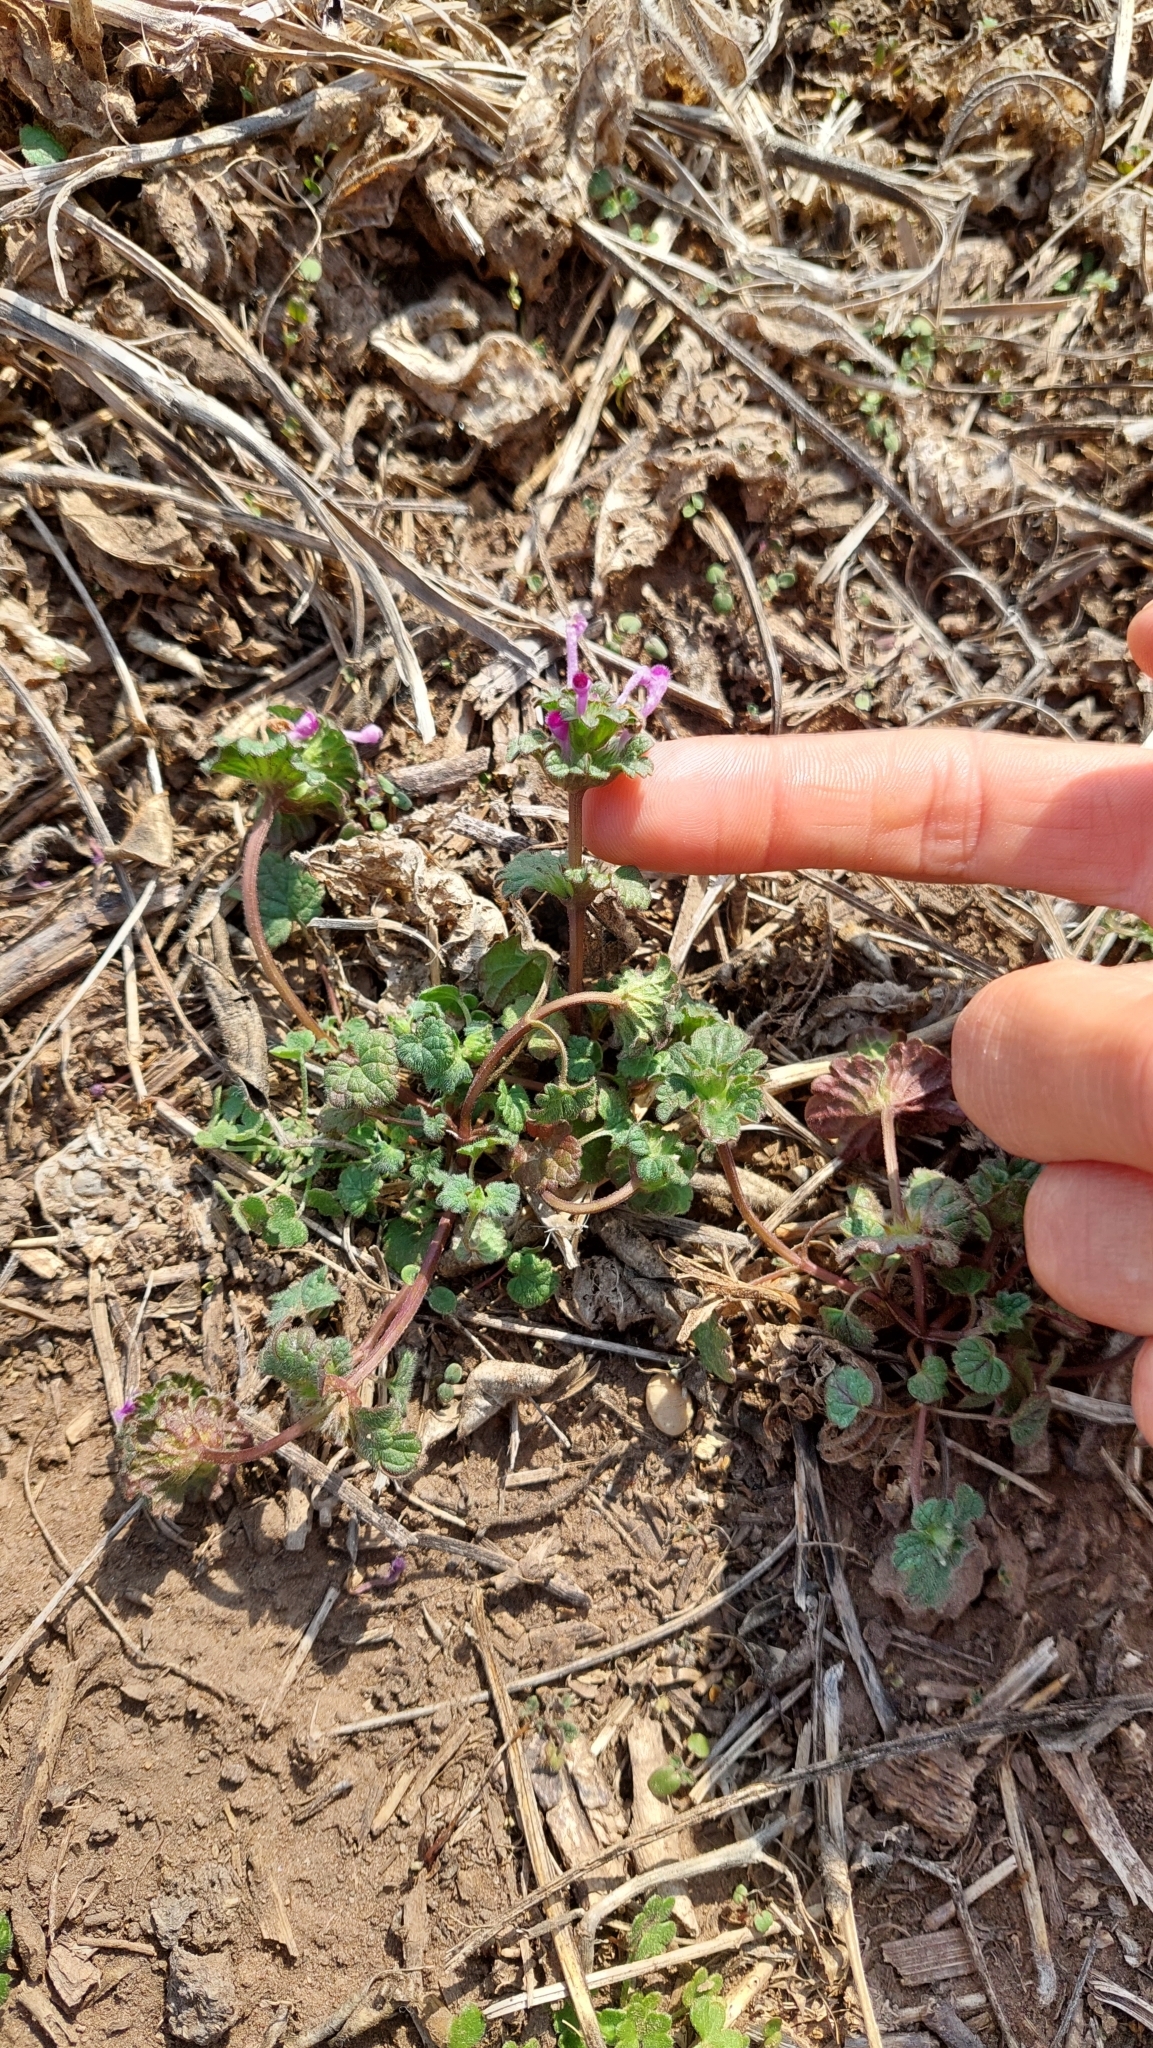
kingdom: Plantae
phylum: Tracheophyta
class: Magnoliopsida
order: Lamiales
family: Lamiaceae
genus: Lamium
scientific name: Lamium amplexicaule
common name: Henbit dead-nettle
